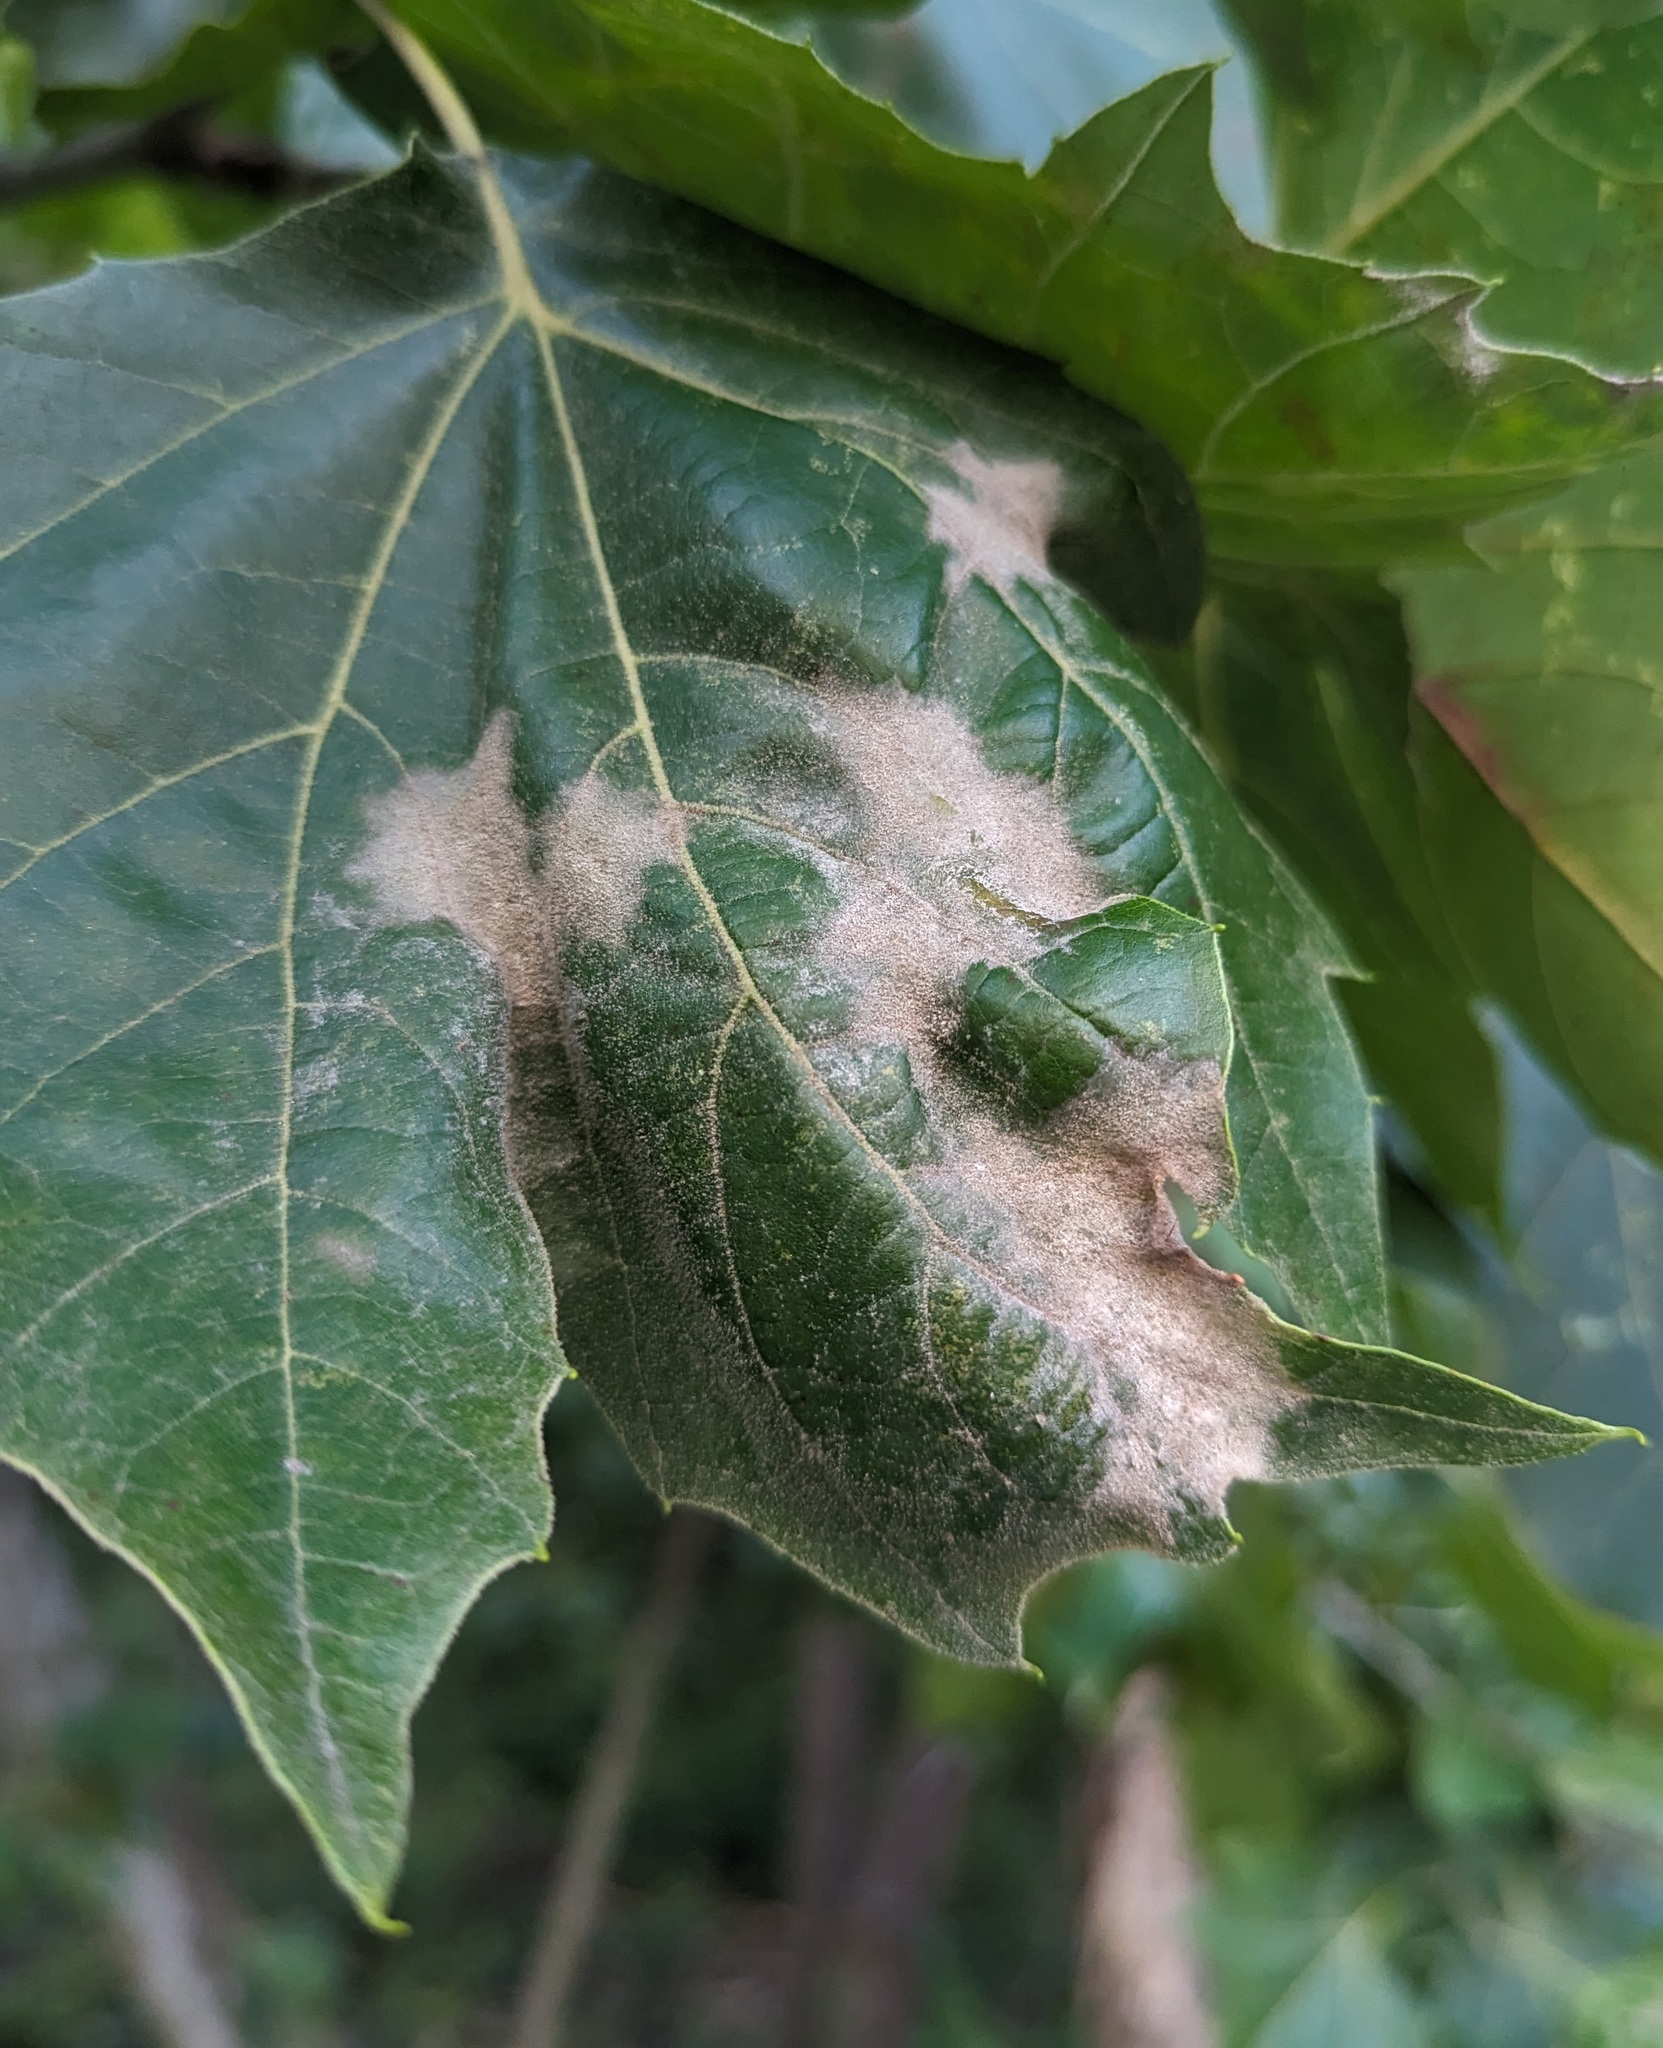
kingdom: Fungi
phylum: Ascomycota
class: Leotiomycetes
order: Helotiales
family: Erysiphaceae
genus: Erysiphe
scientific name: Erysiphe platani
